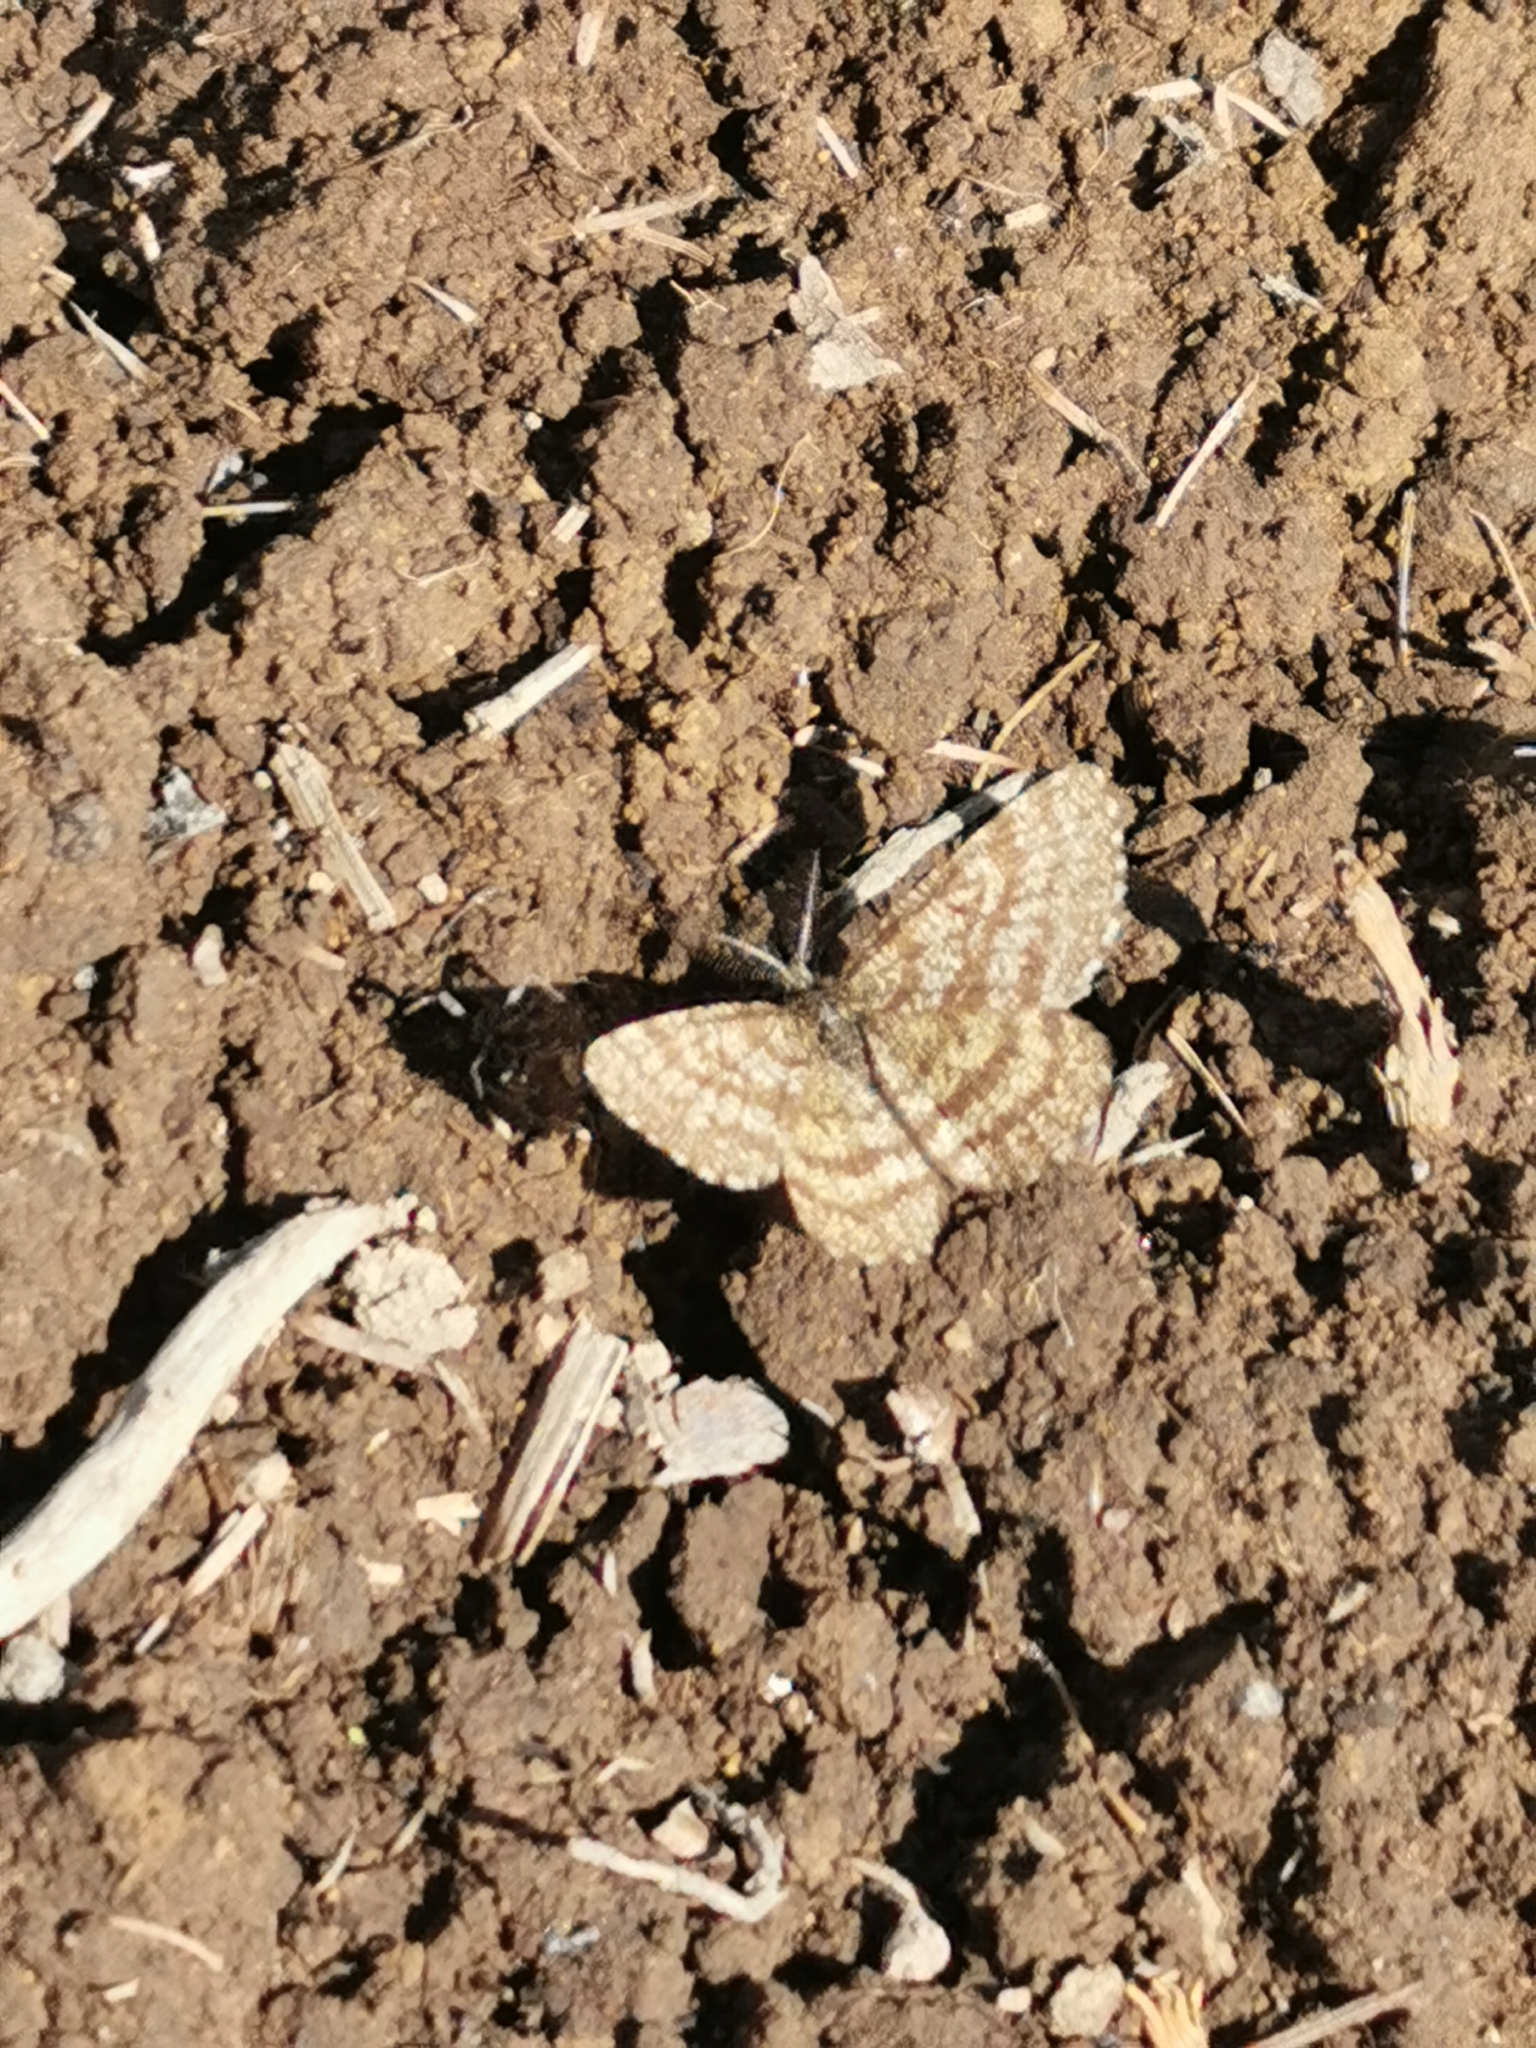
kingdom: Animalia
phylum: Arthropoda
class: Insecta
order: Lepidoptera
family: Geometridae
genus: Ematurga
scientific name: Ematurga atomaria
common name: Common heath
